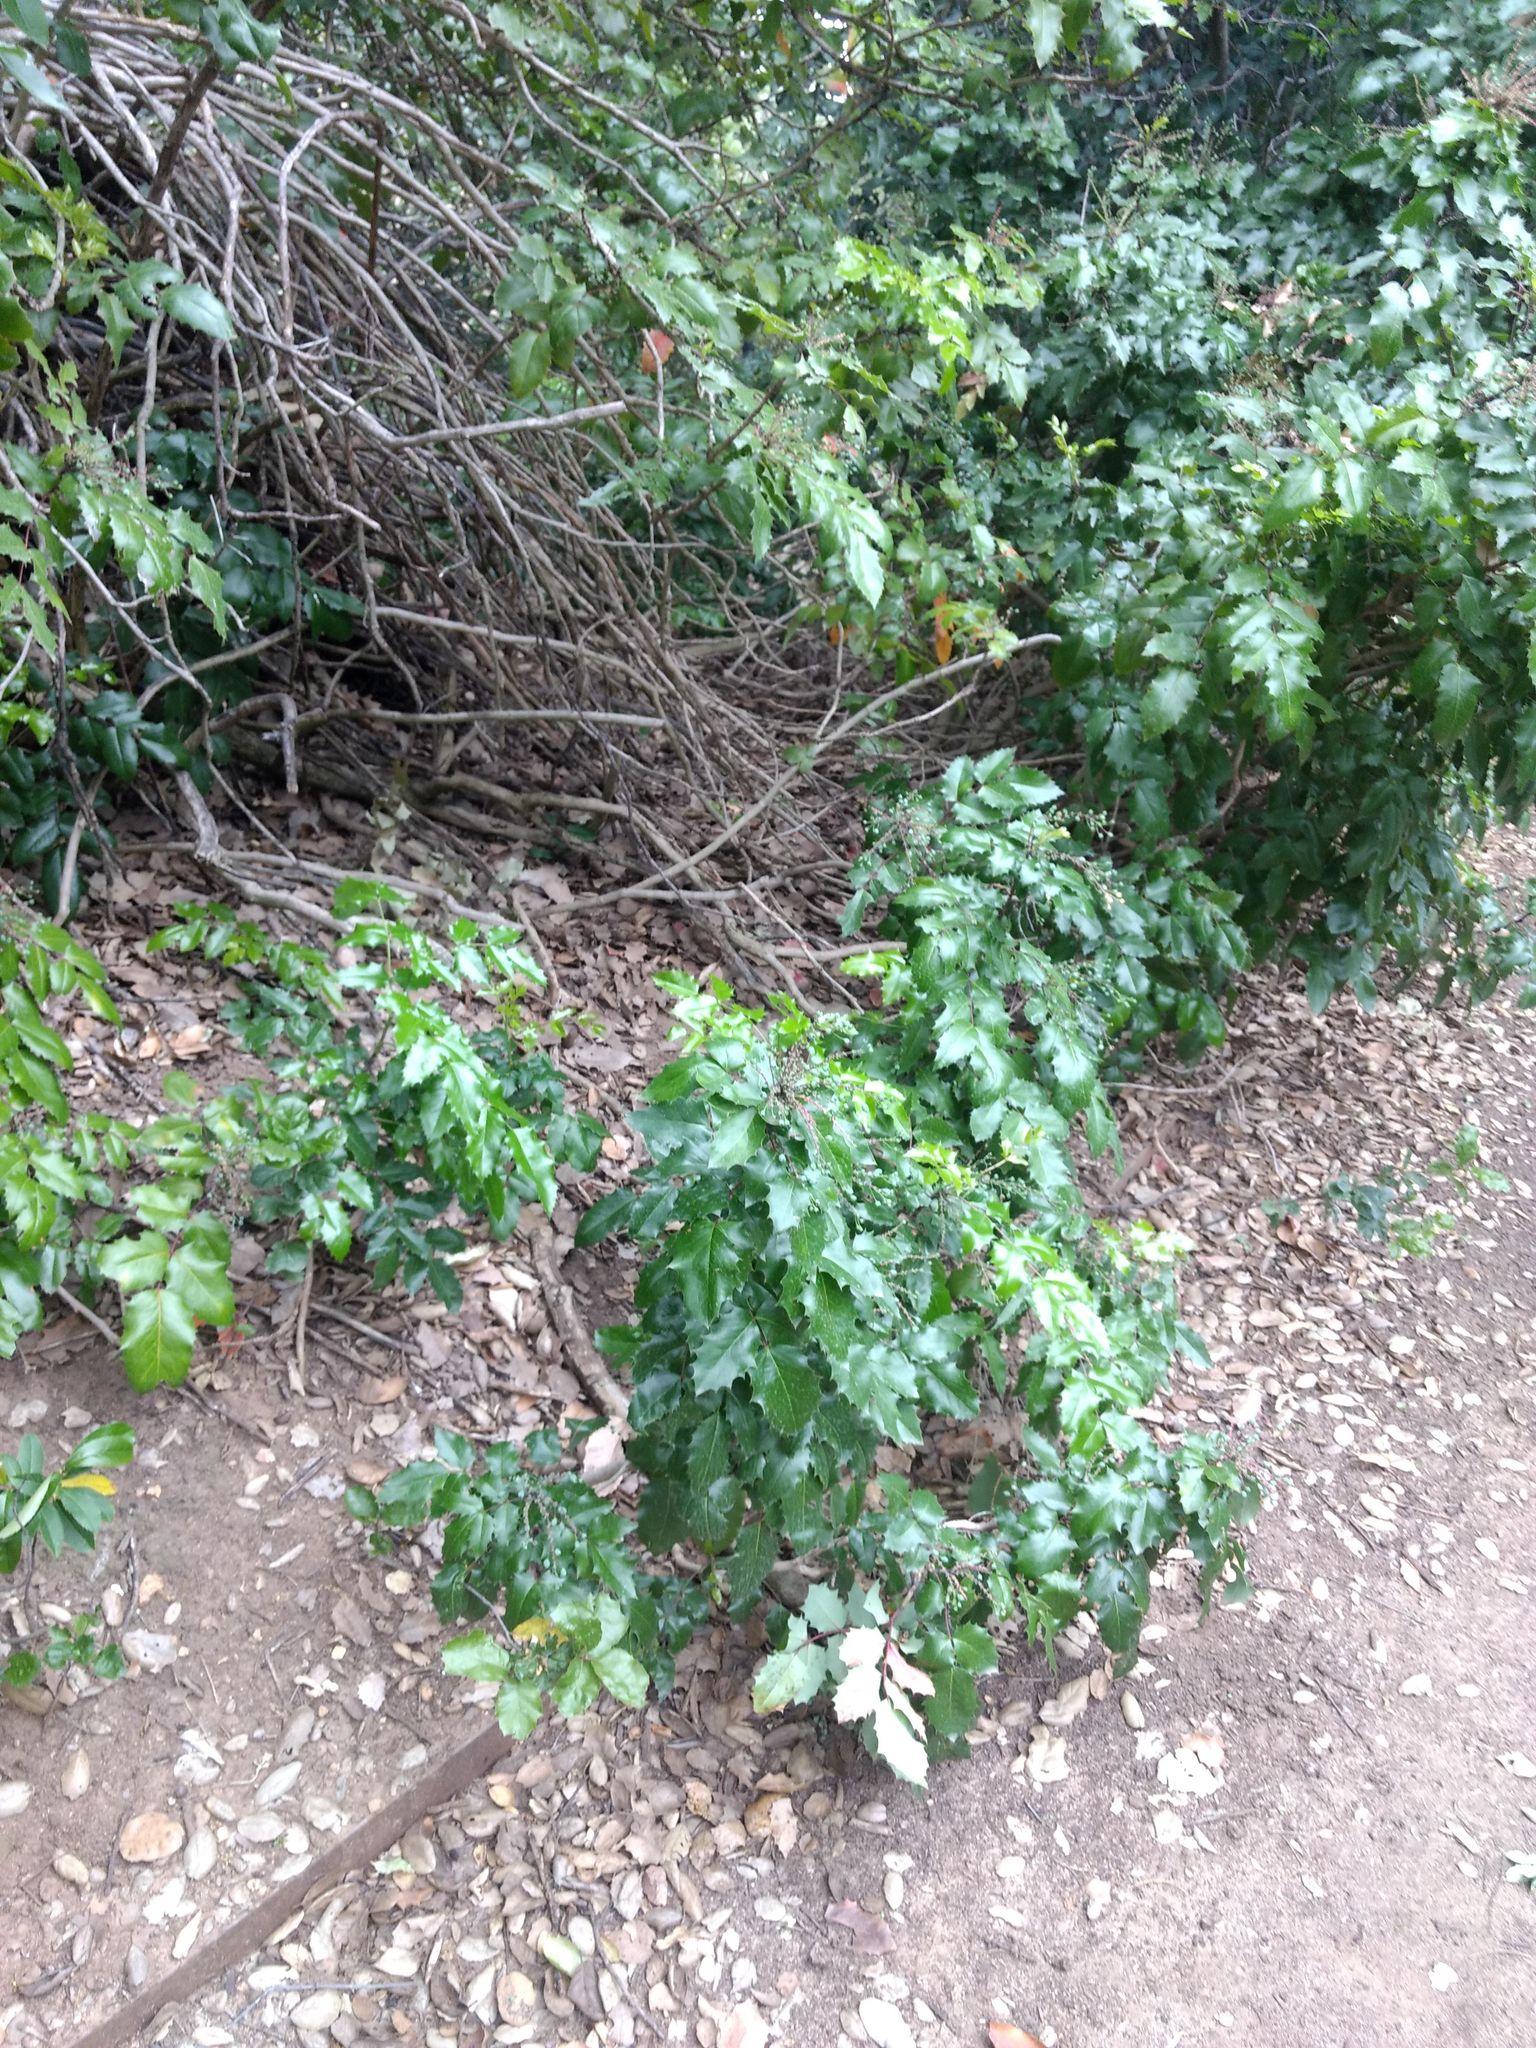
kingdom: Plantae
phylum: Tracheophyta
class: Magnoliopsida
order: Ranunculales
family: Berberidaceae
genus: Mahonia
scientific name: Mahonia aquifolium
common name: Oregon-grape
